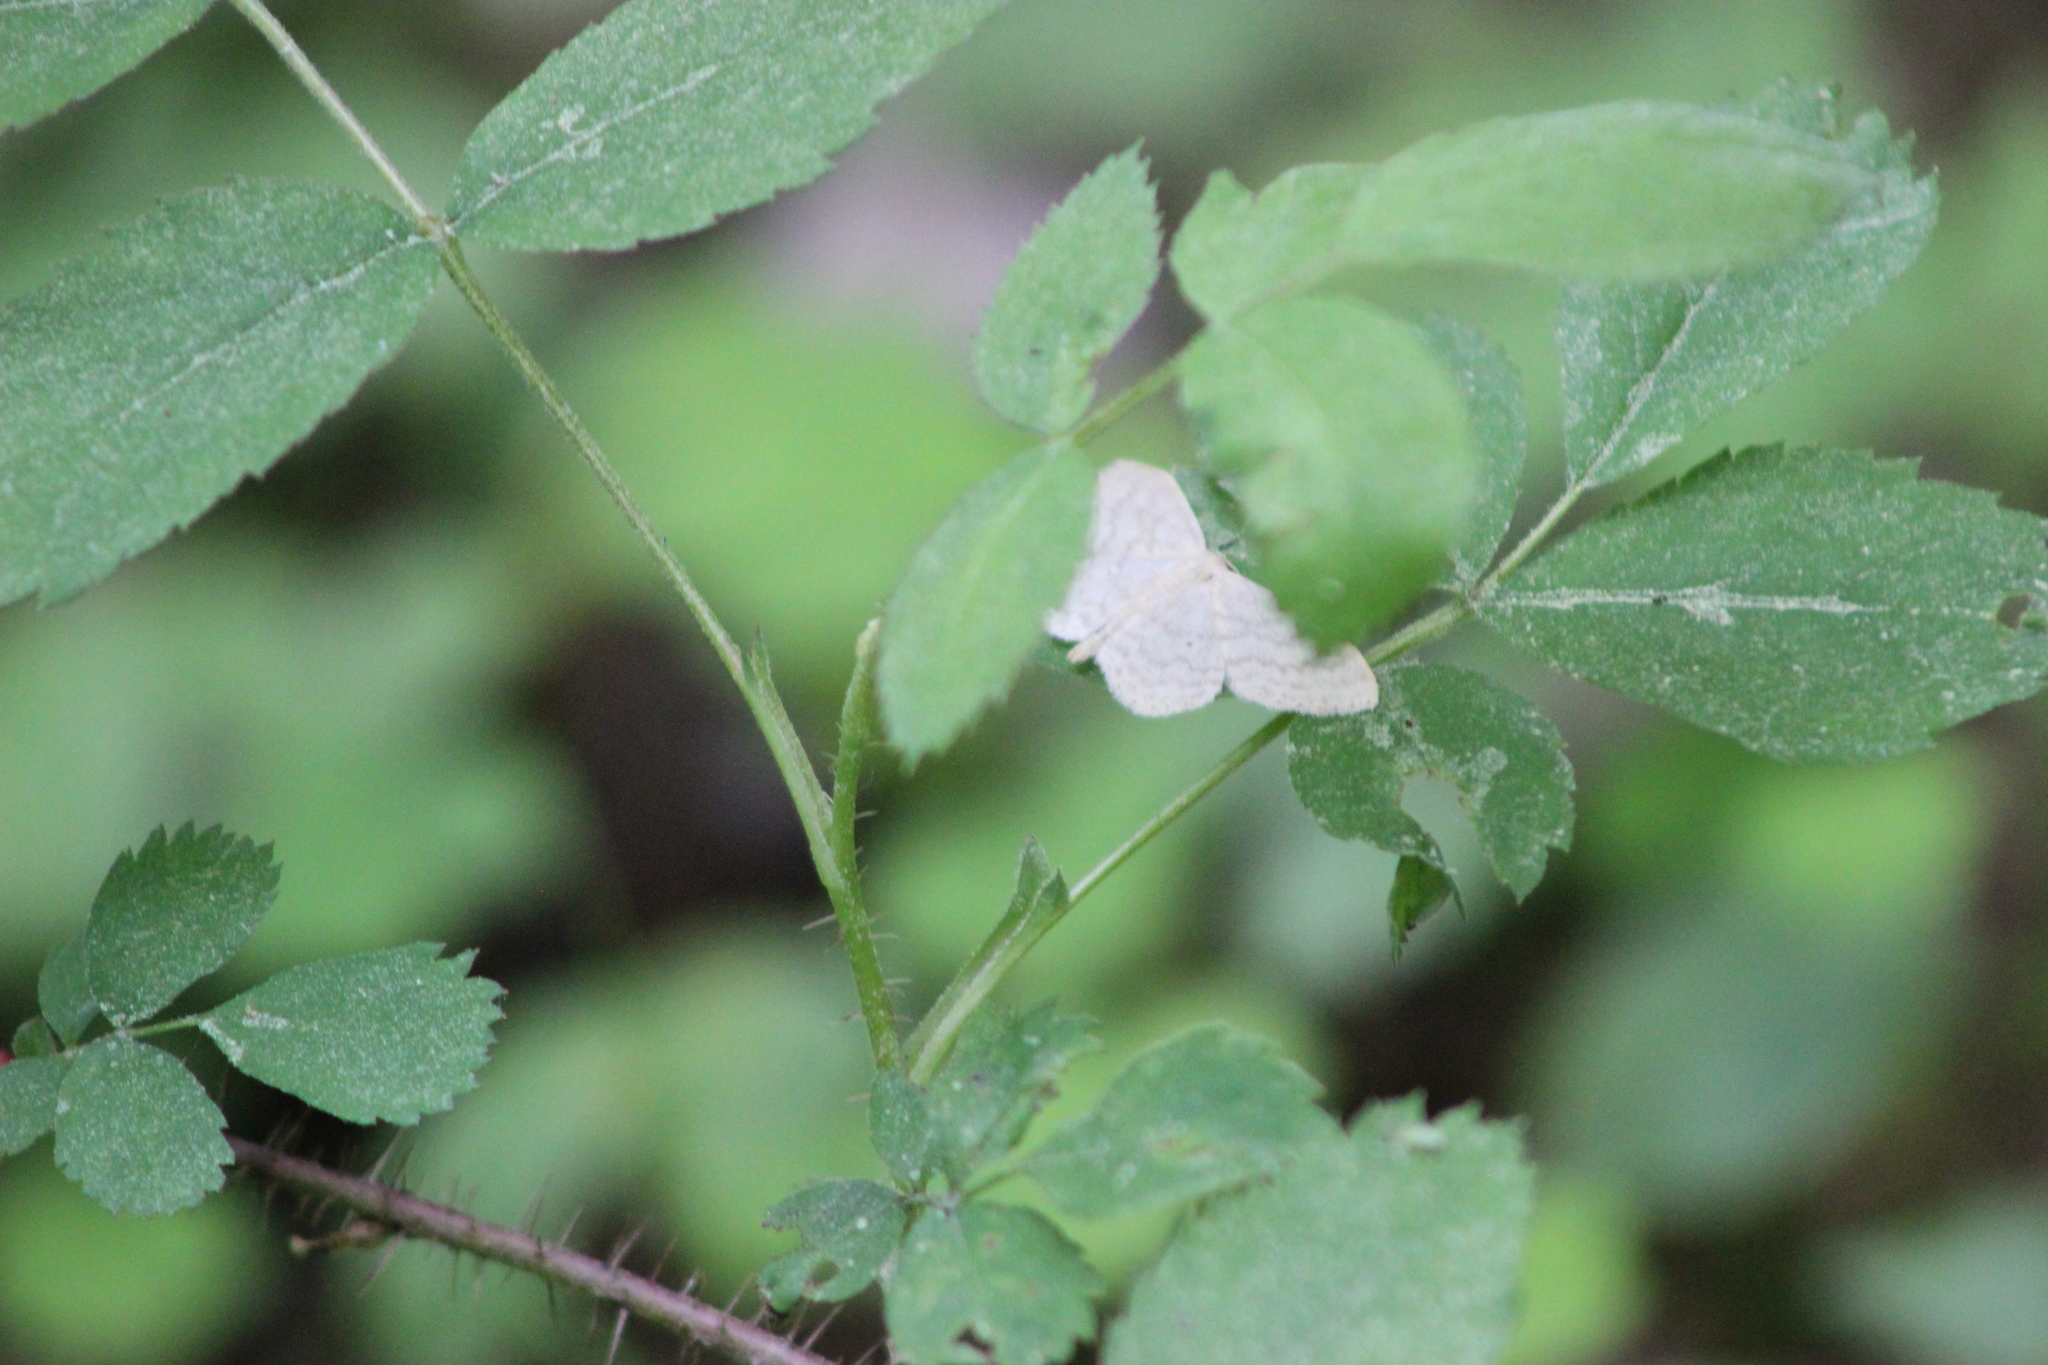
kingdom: Animalia
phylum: Arthropoda
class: Insecta
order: Lepidoptera
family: Geometridae
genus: Scopula
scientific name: Scopula floslactata
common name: Cream wave
